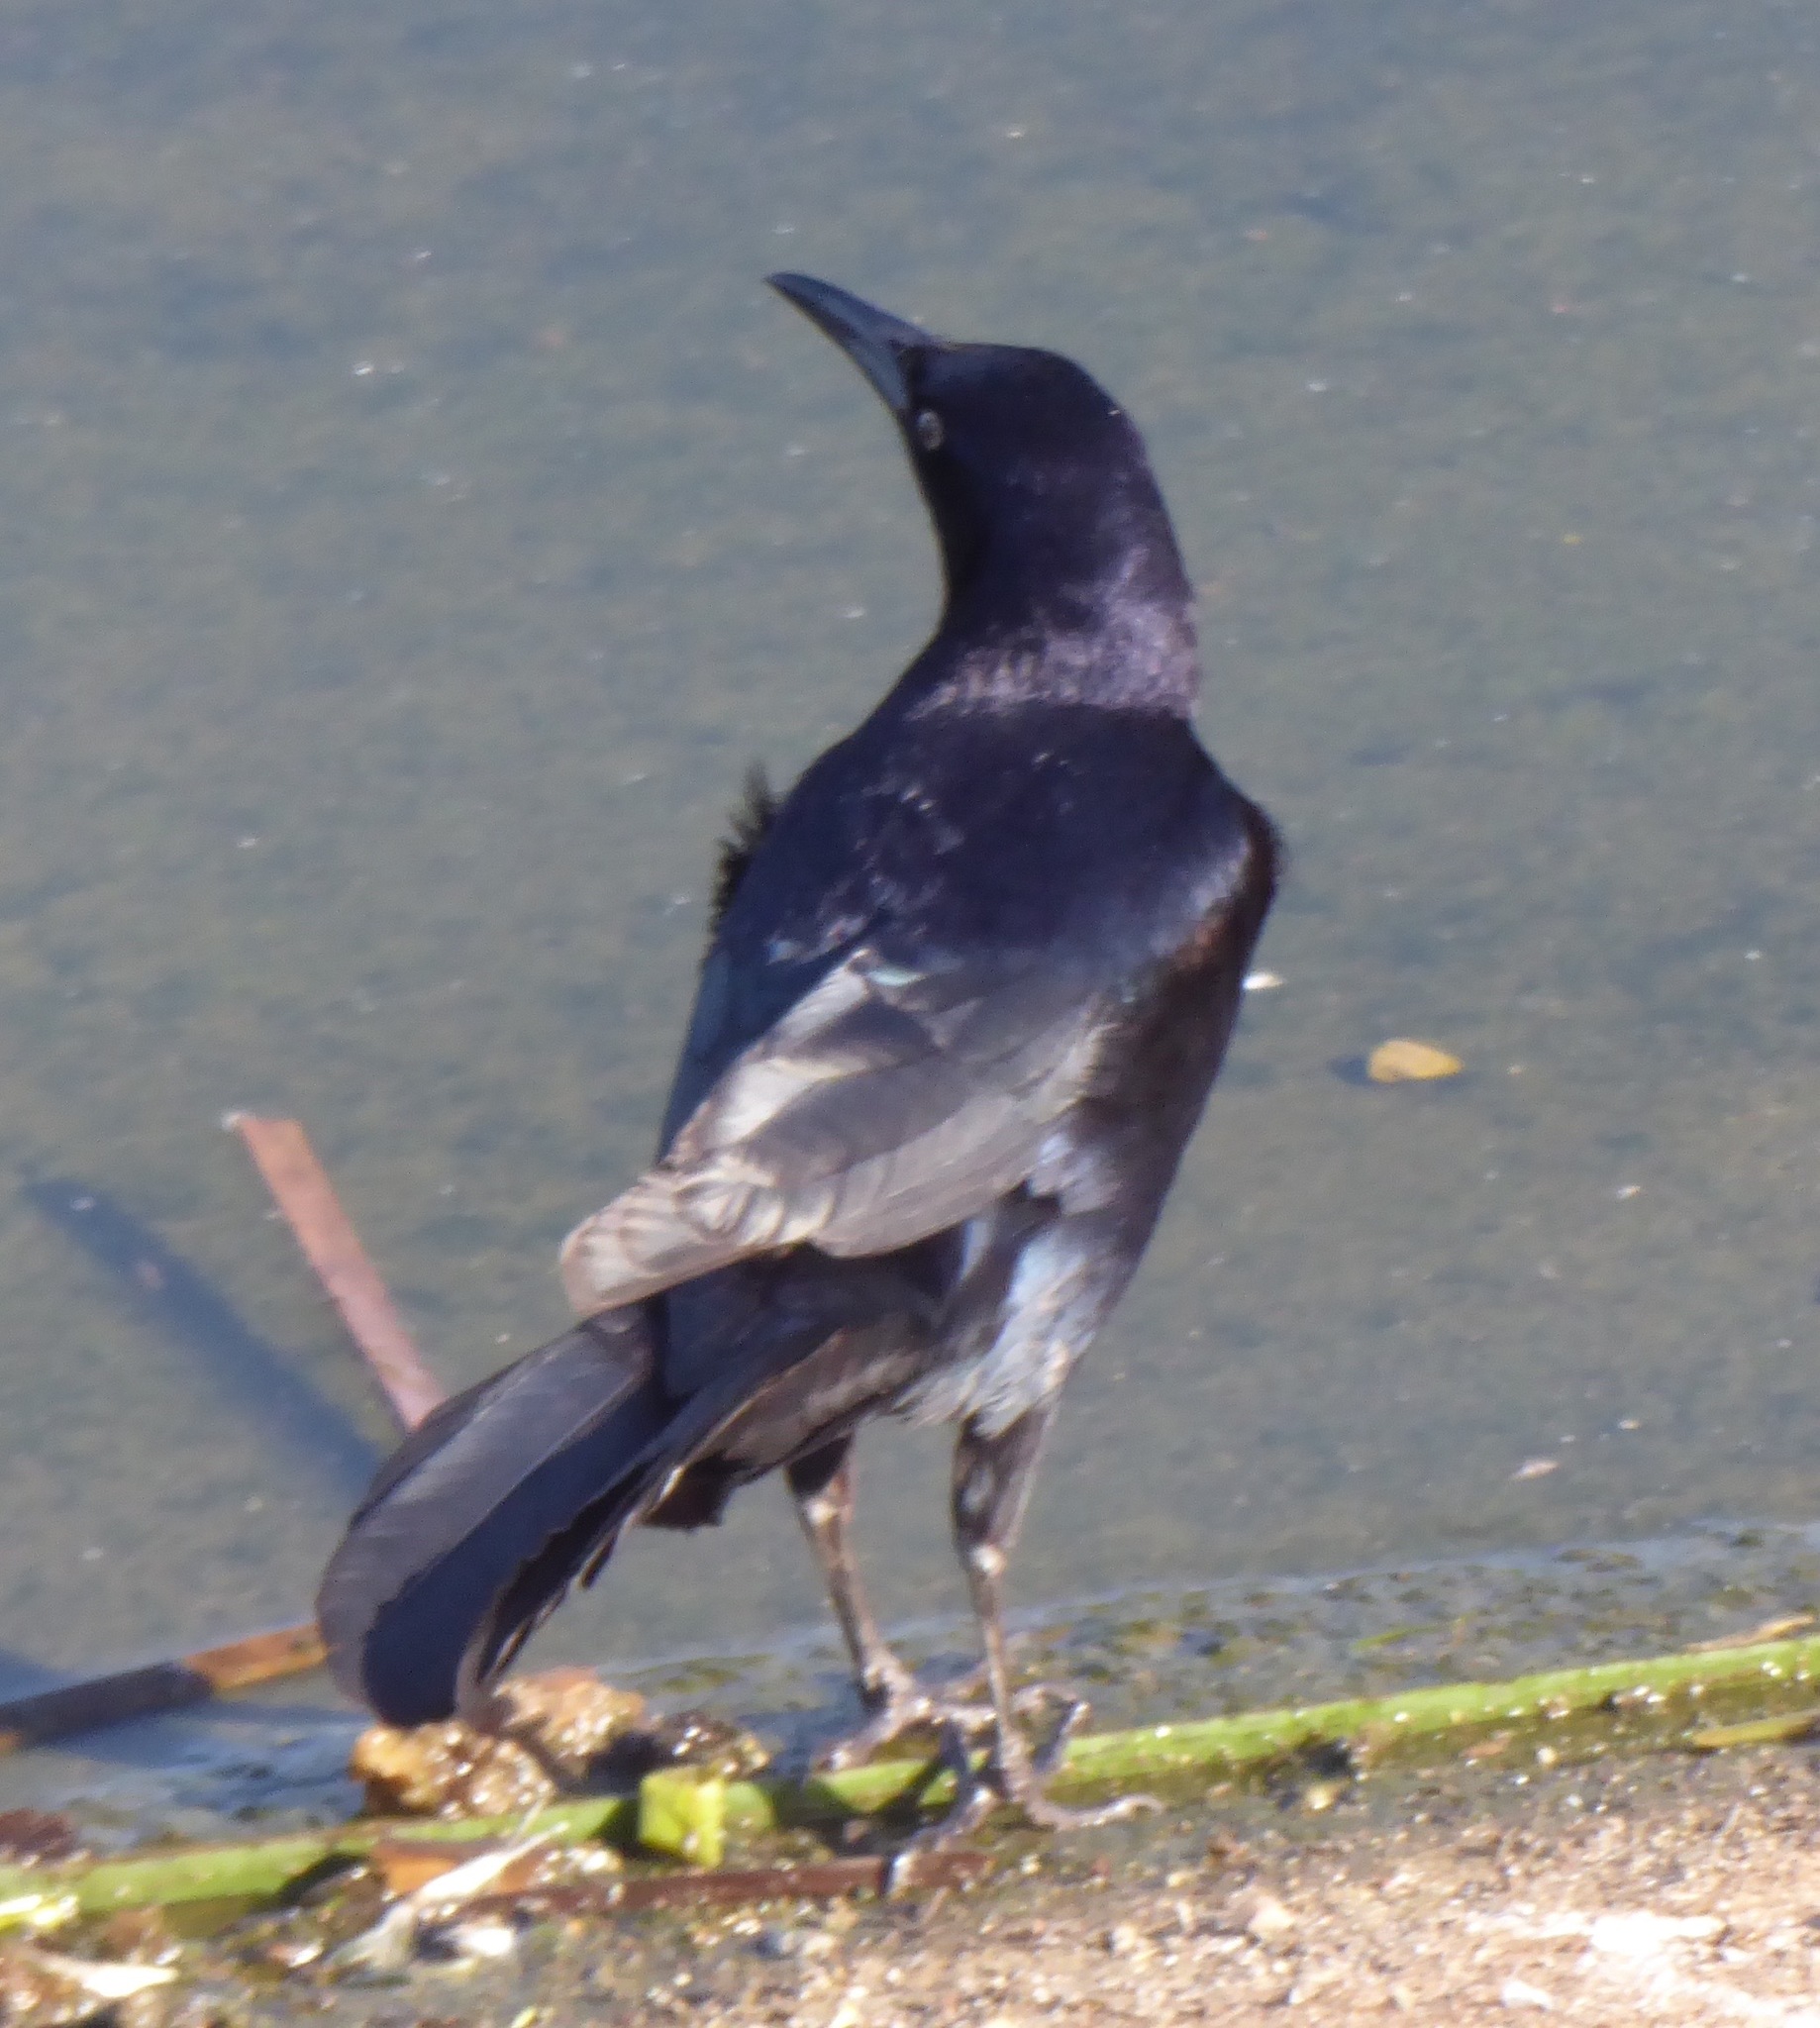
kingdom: Animalia
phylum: Chordata
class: Aves
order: Passeriformes
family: Icteridae
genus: Quiscalus
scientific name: Quiscalus mexicanus
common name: Great-tailed grackle
